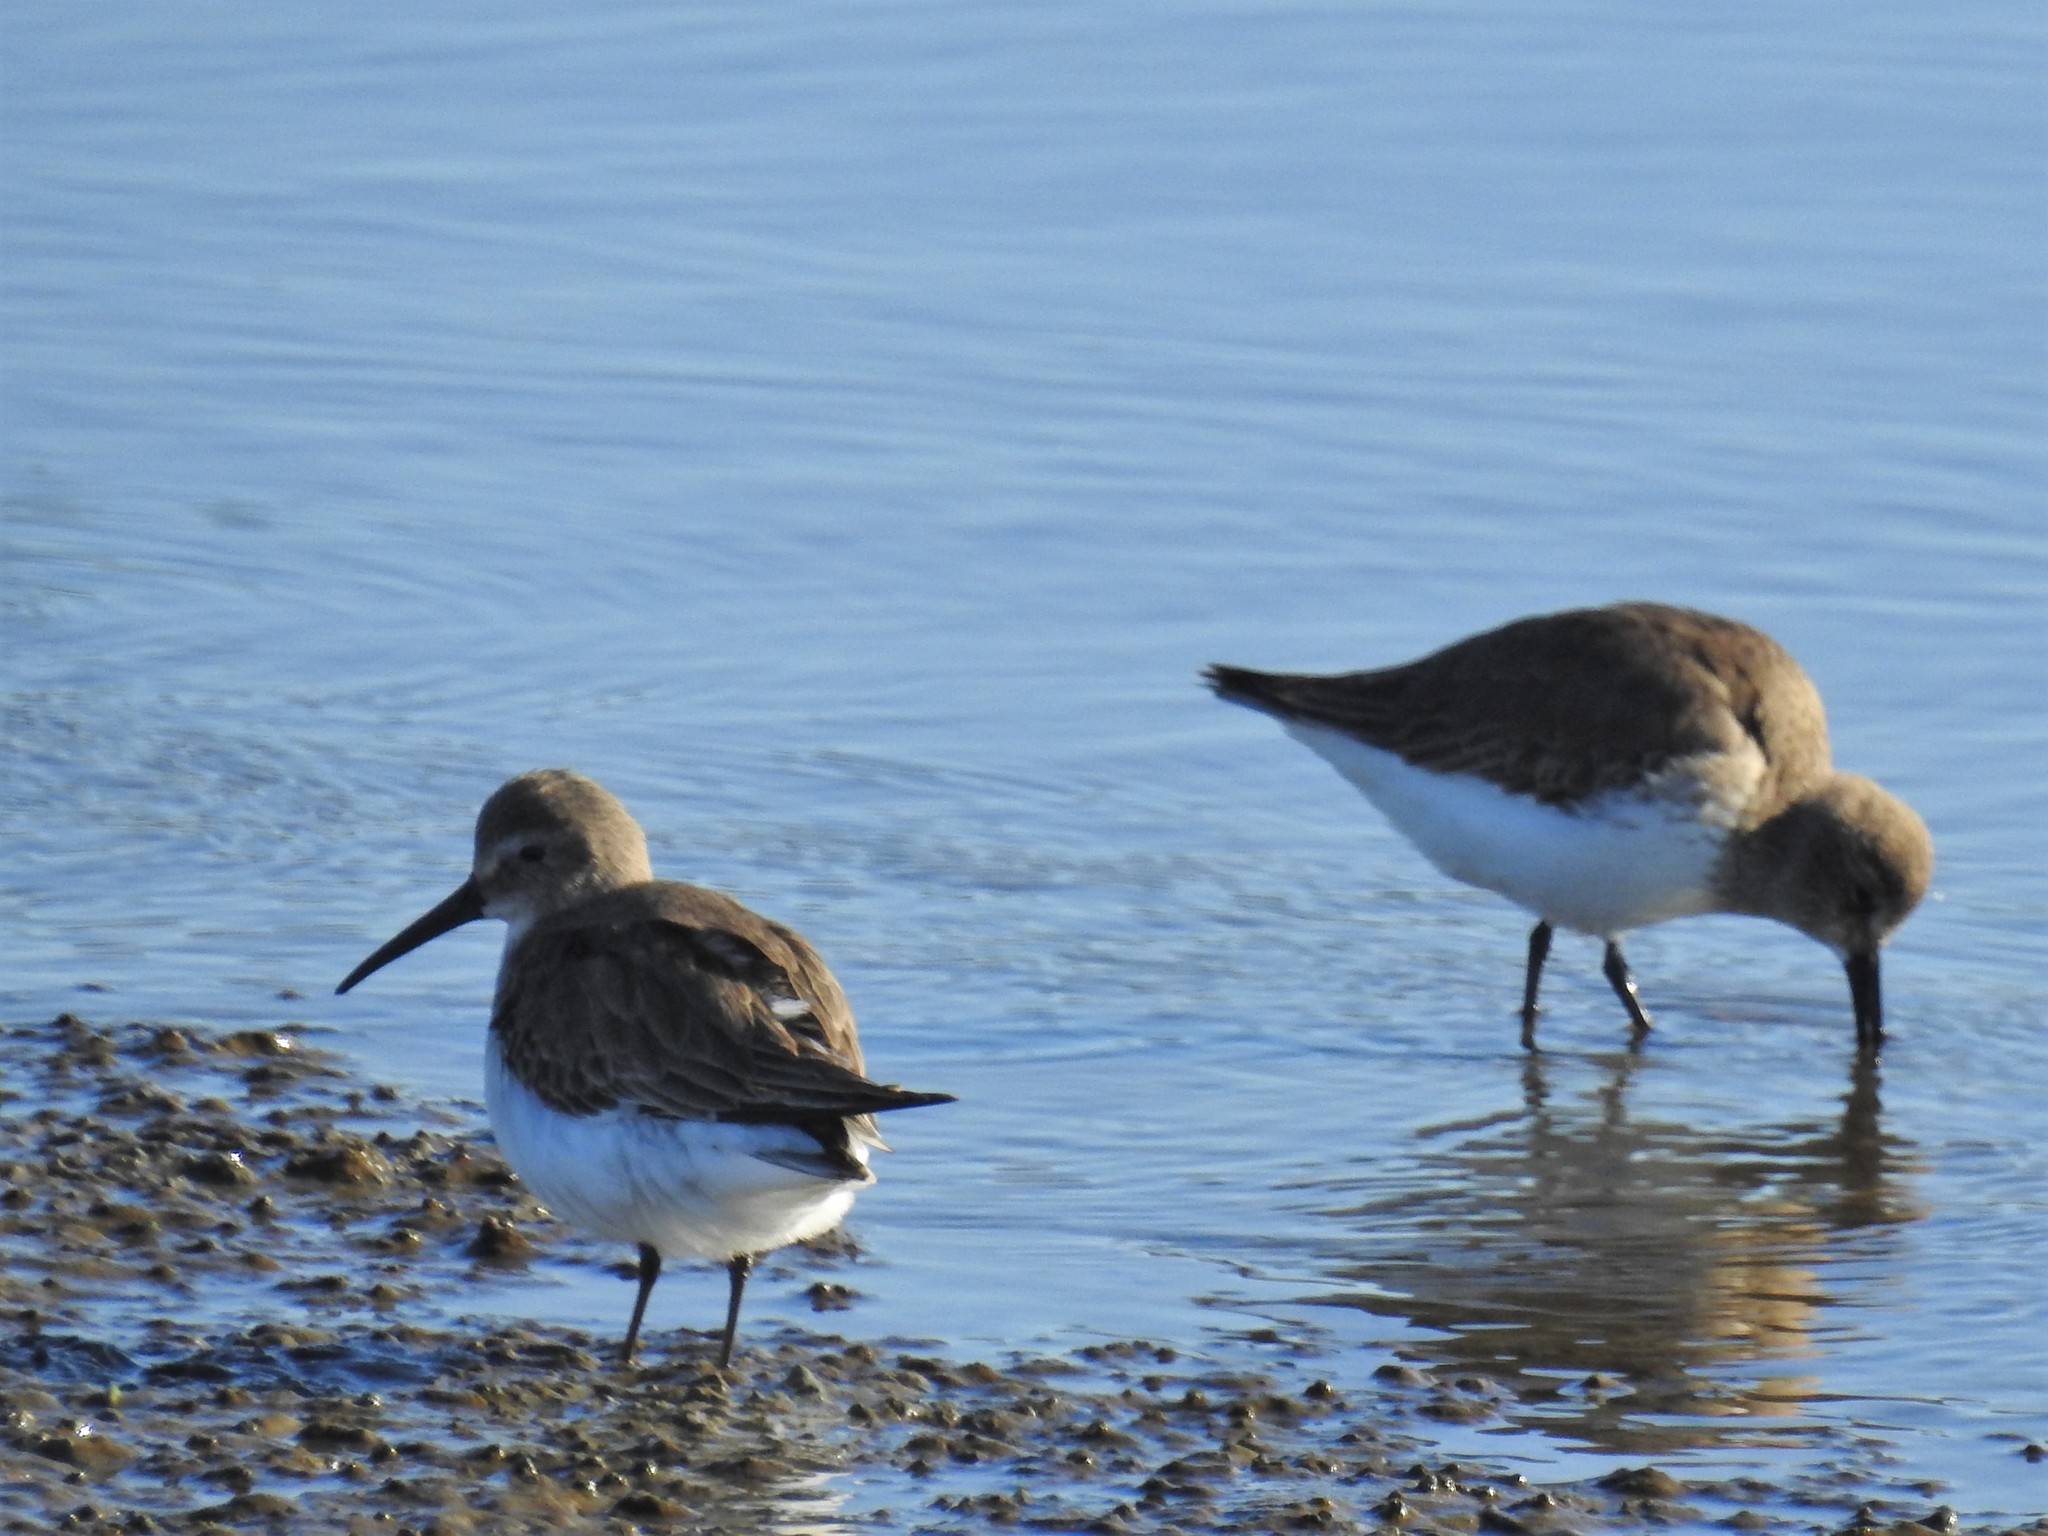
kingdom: Animalia
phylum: Chordata
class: Aves
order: Charadriiformes
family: Scolopacidae
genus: Calidris
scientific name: Calidris alpina
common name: Dunlin
